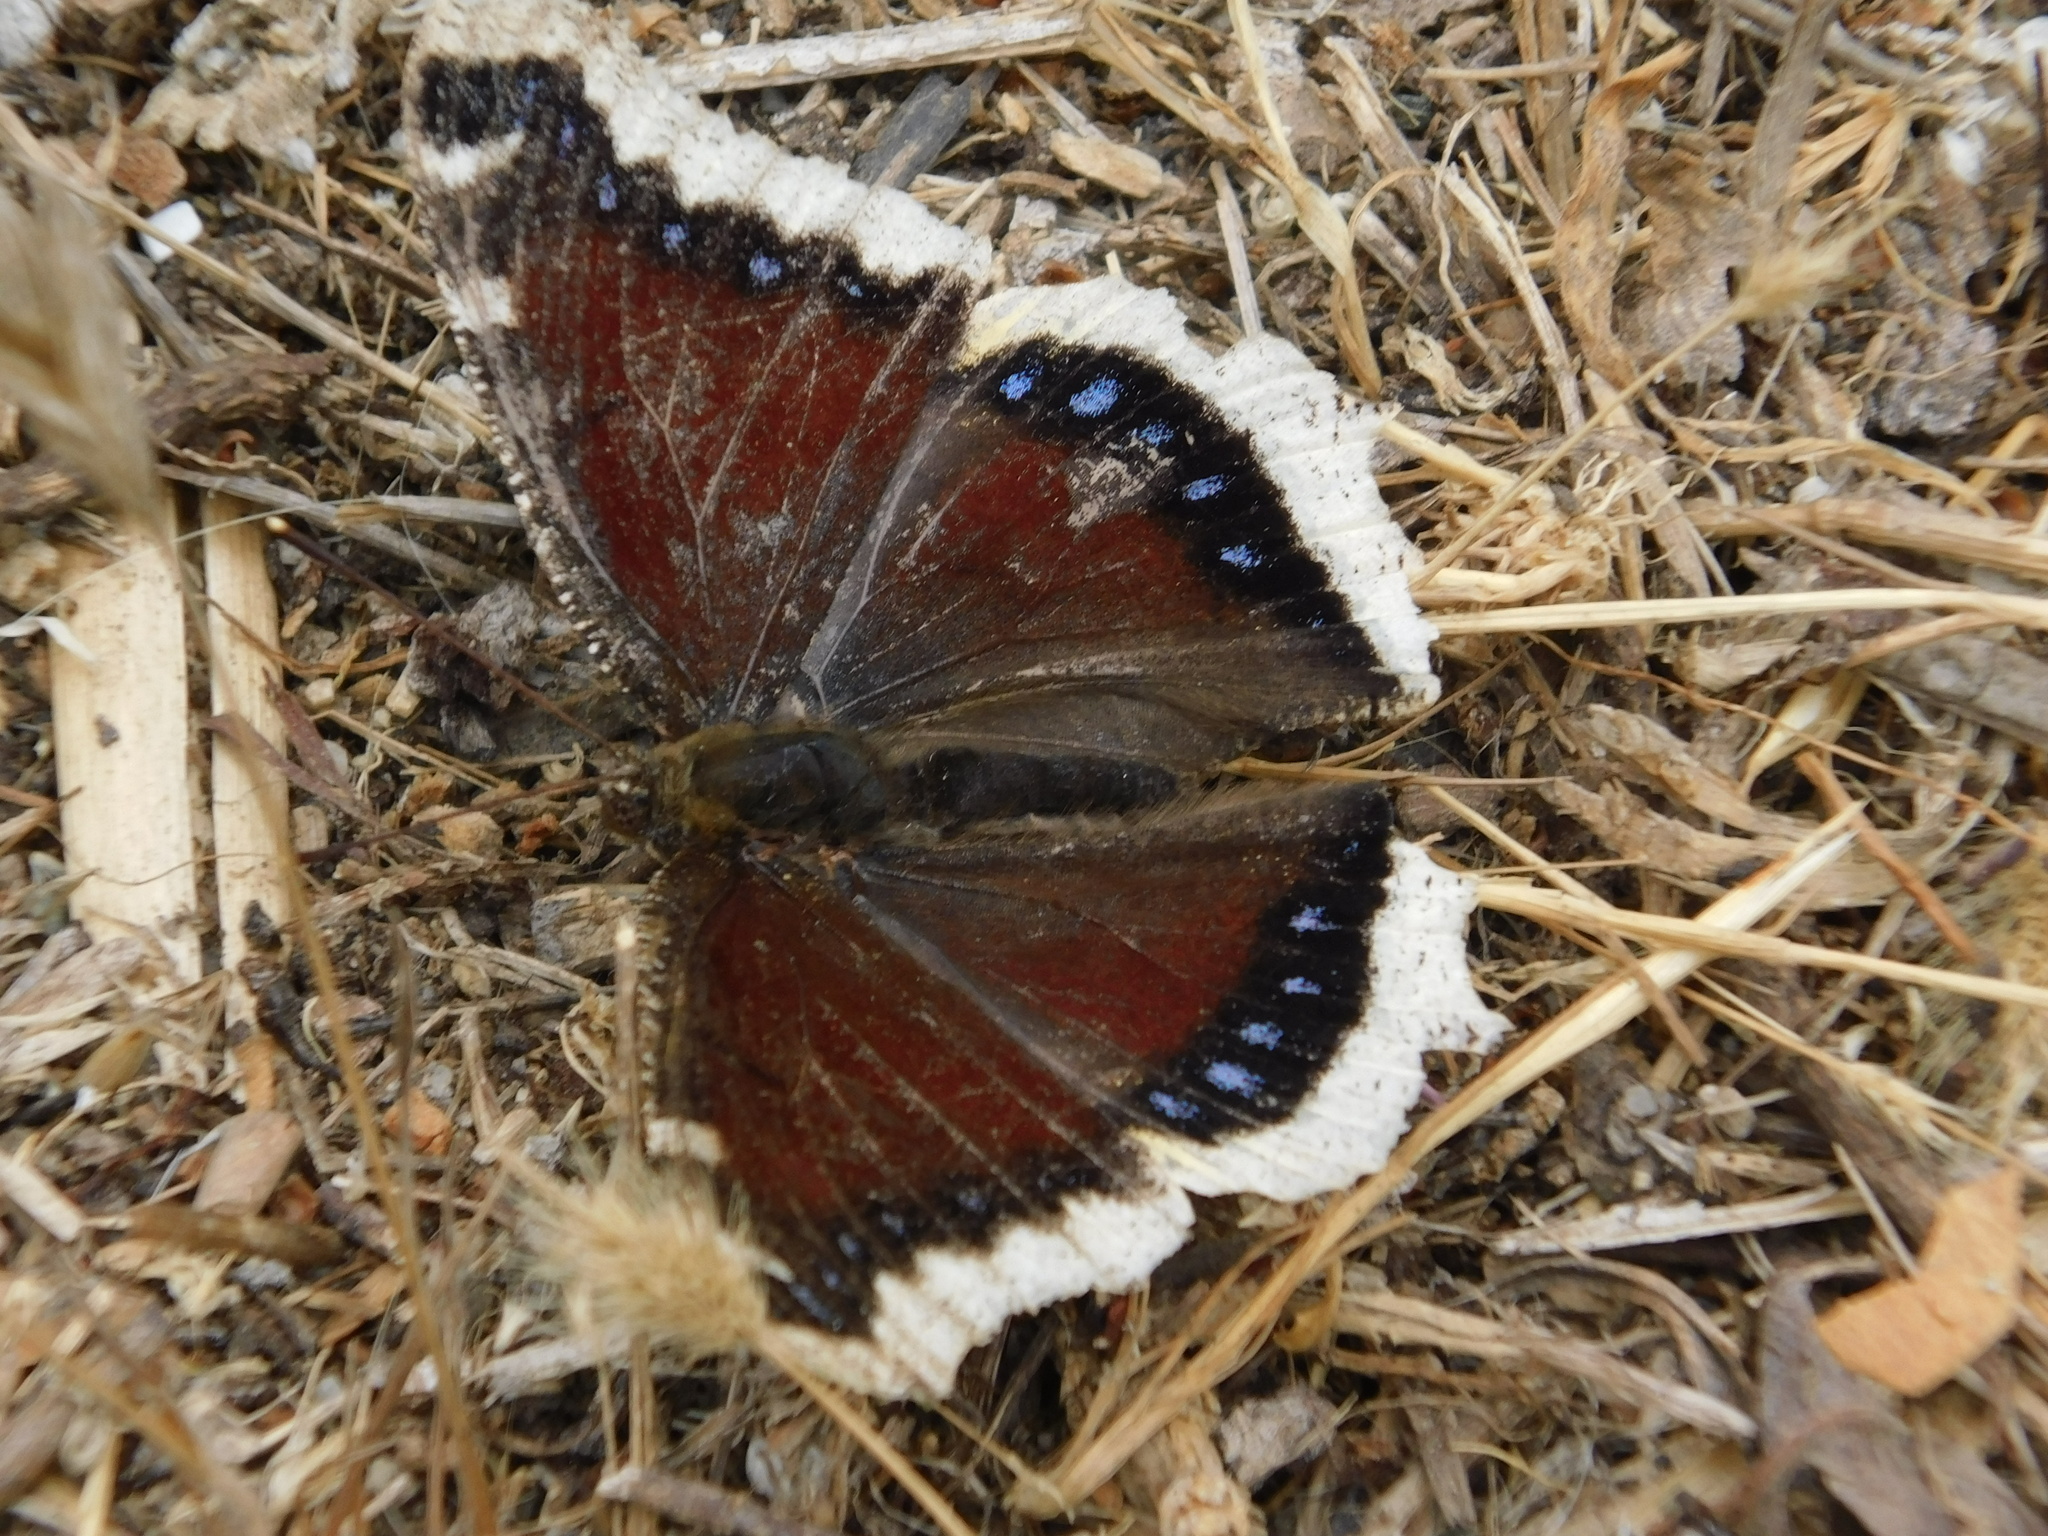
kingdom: Animalia
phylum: Arthropoda
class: Insecta
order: Lepidoptera
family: Nymphalidae
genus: Nymphalis
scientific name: Nymphalis antiopa
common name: Camberwell beauty
